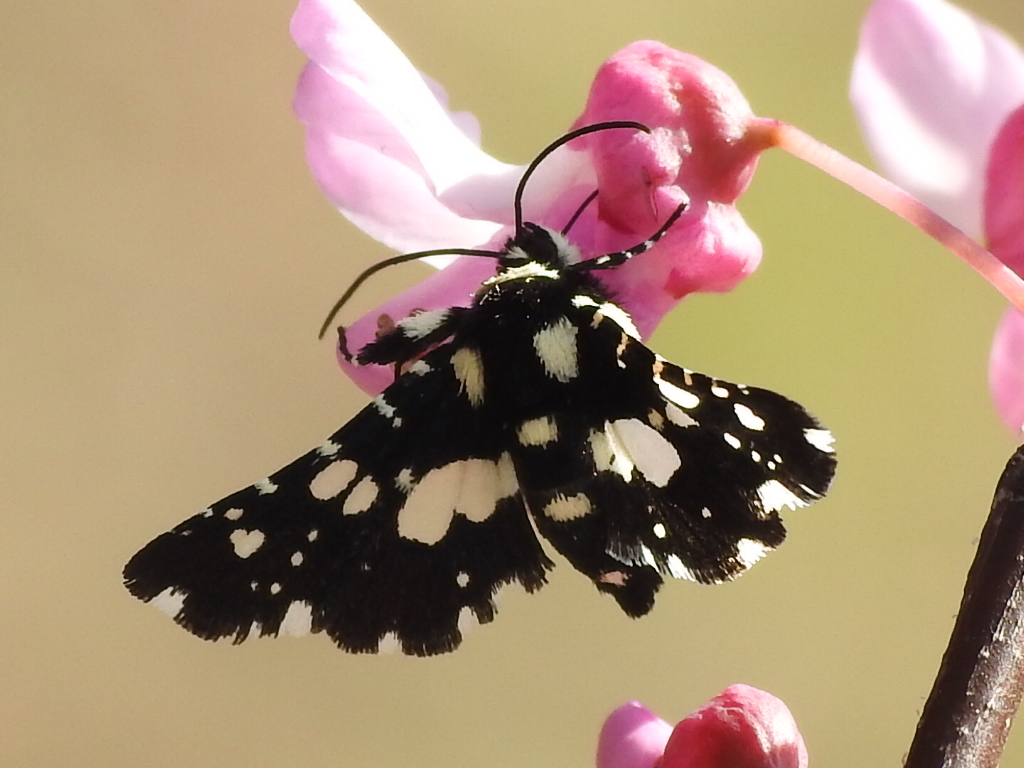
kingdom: Animalia
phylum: Arthropoda
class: Insecta
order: Lepidoptera
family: Thyrididae
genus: Pseudothyris
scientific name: Pseudothyris sepulchralis
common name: Mournful thyris moth
